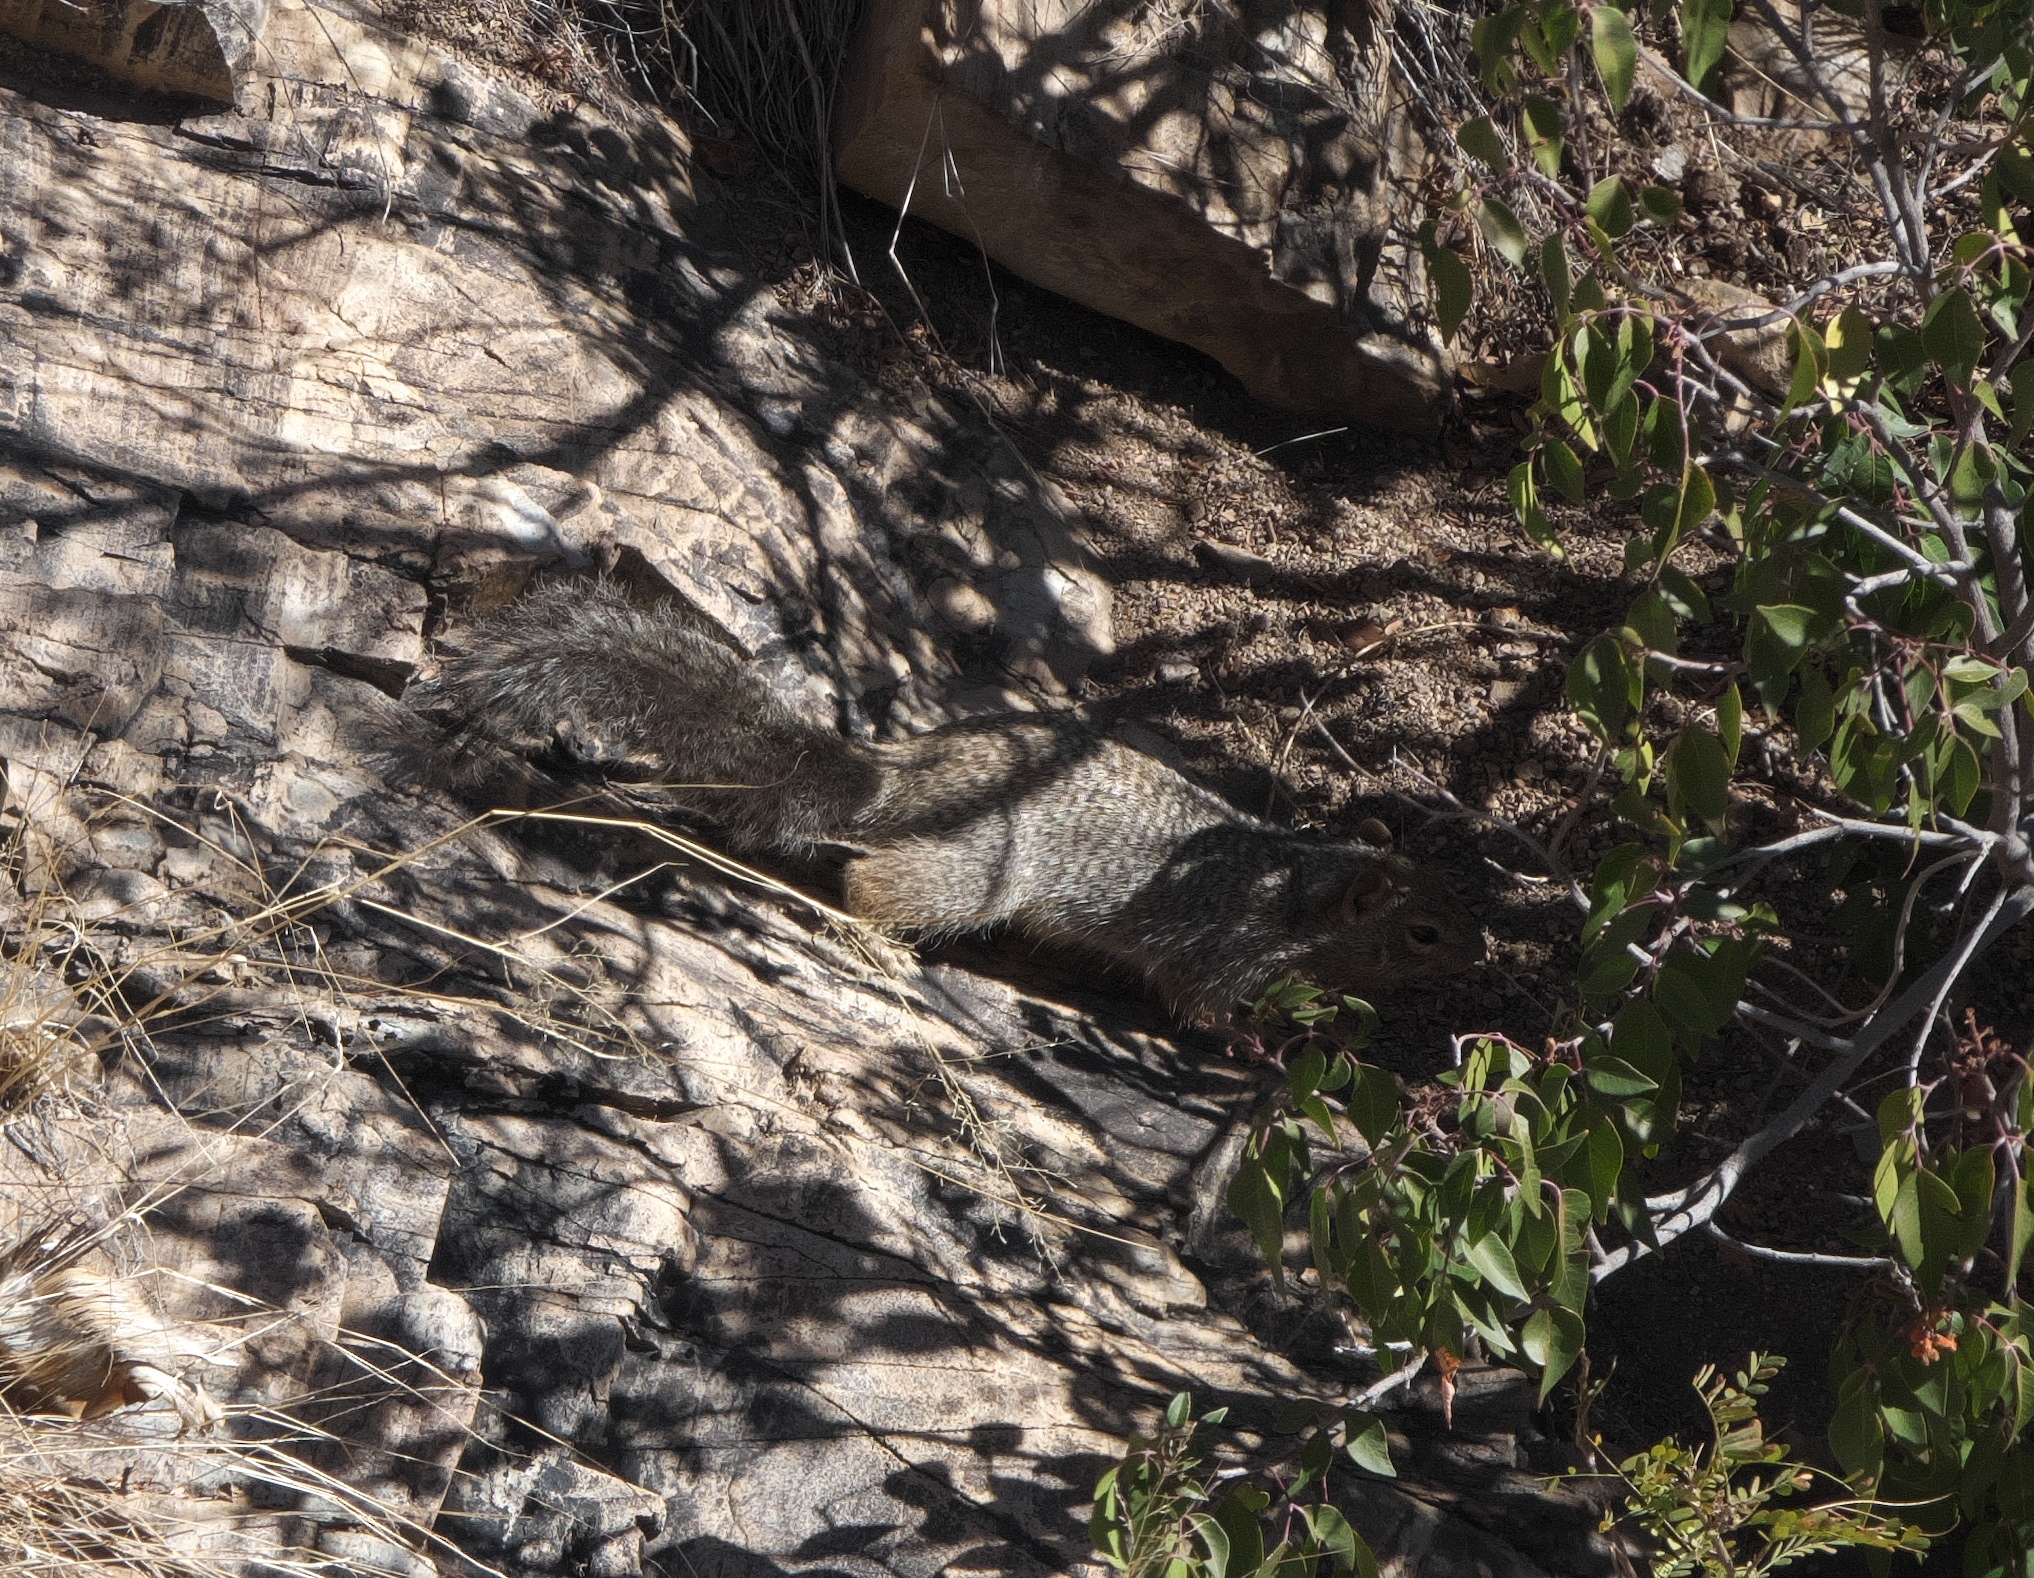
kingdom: Animalia
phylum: Chordata
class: Mammalia
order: Rodentia
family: Sciuridae
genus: Otospermophilus
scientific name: Otospermophilus variegatus
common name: Rock squirrel
